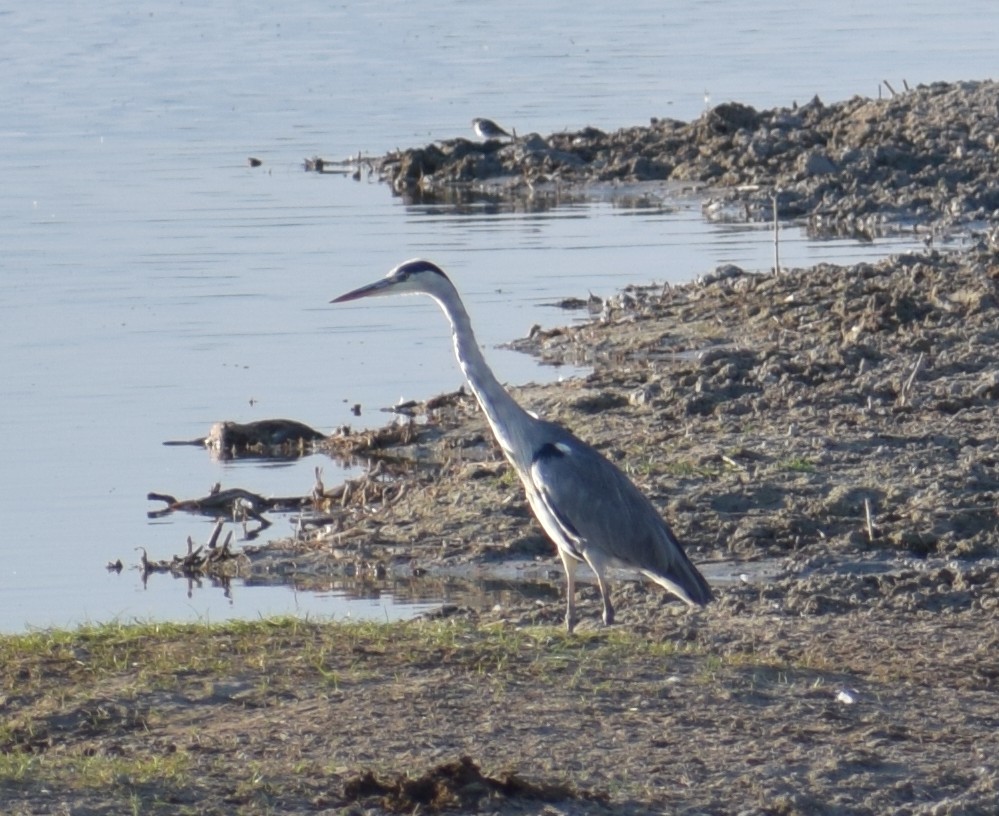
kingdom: Animalia
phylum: Chordata
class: Aves
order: Pelecaniformes
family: Ardeidae
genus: Ardea
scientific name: Ardea cinerea
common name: Grey heron
